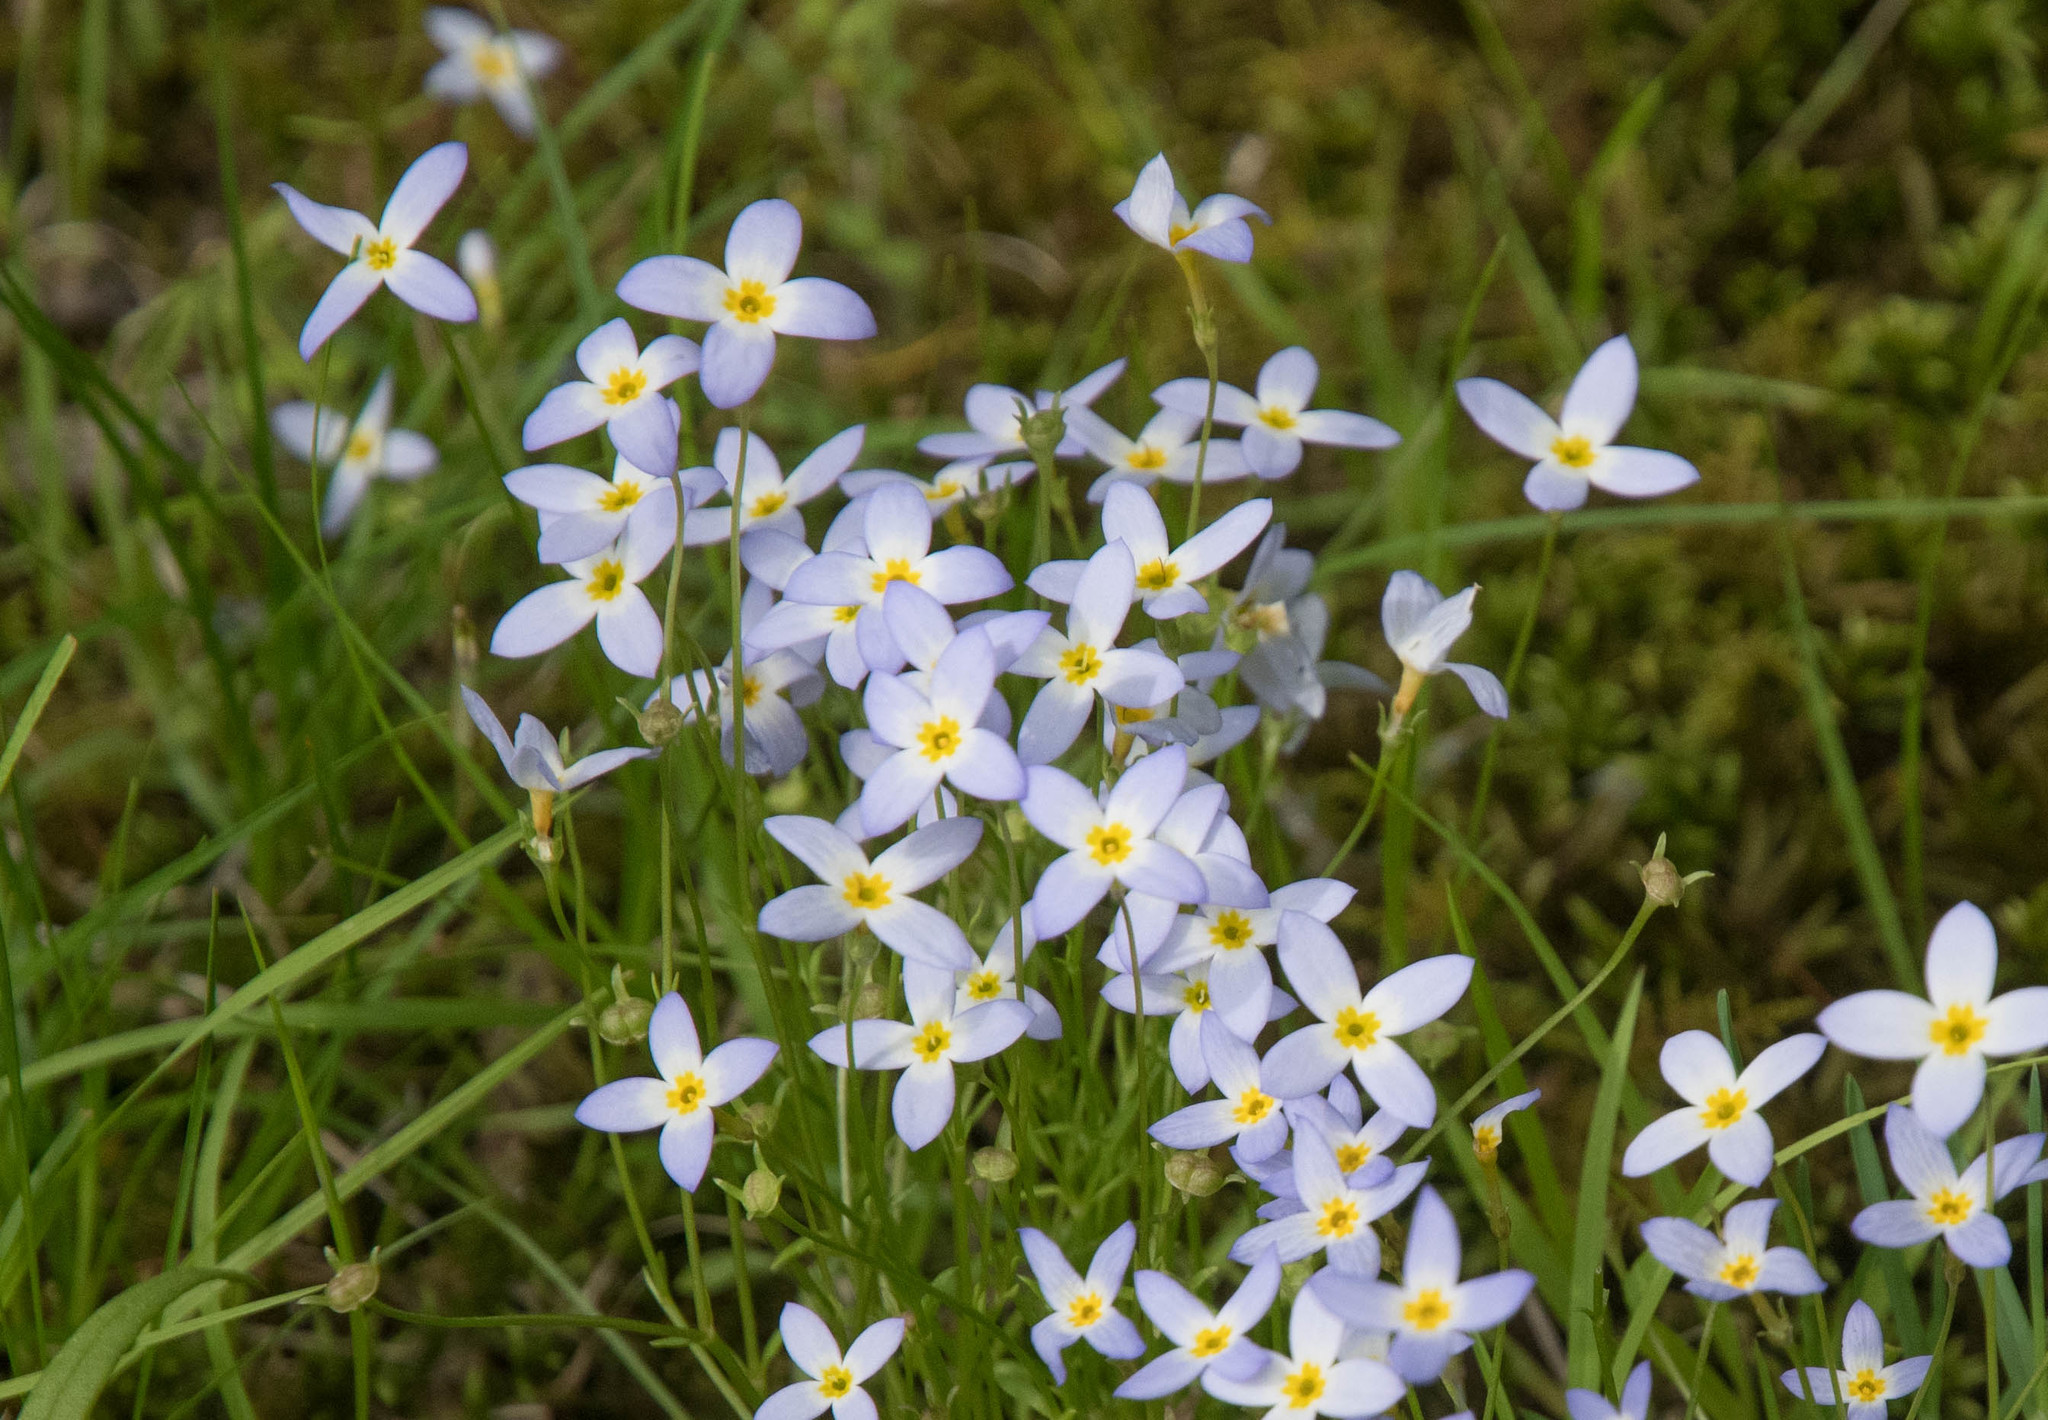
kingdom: Plantae
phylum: Tracheophyta
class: Magnoliopsida
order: Gentianales
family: Rubiaceae
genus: Houstonia
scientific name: Houstonia caerulea
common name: Bluets
